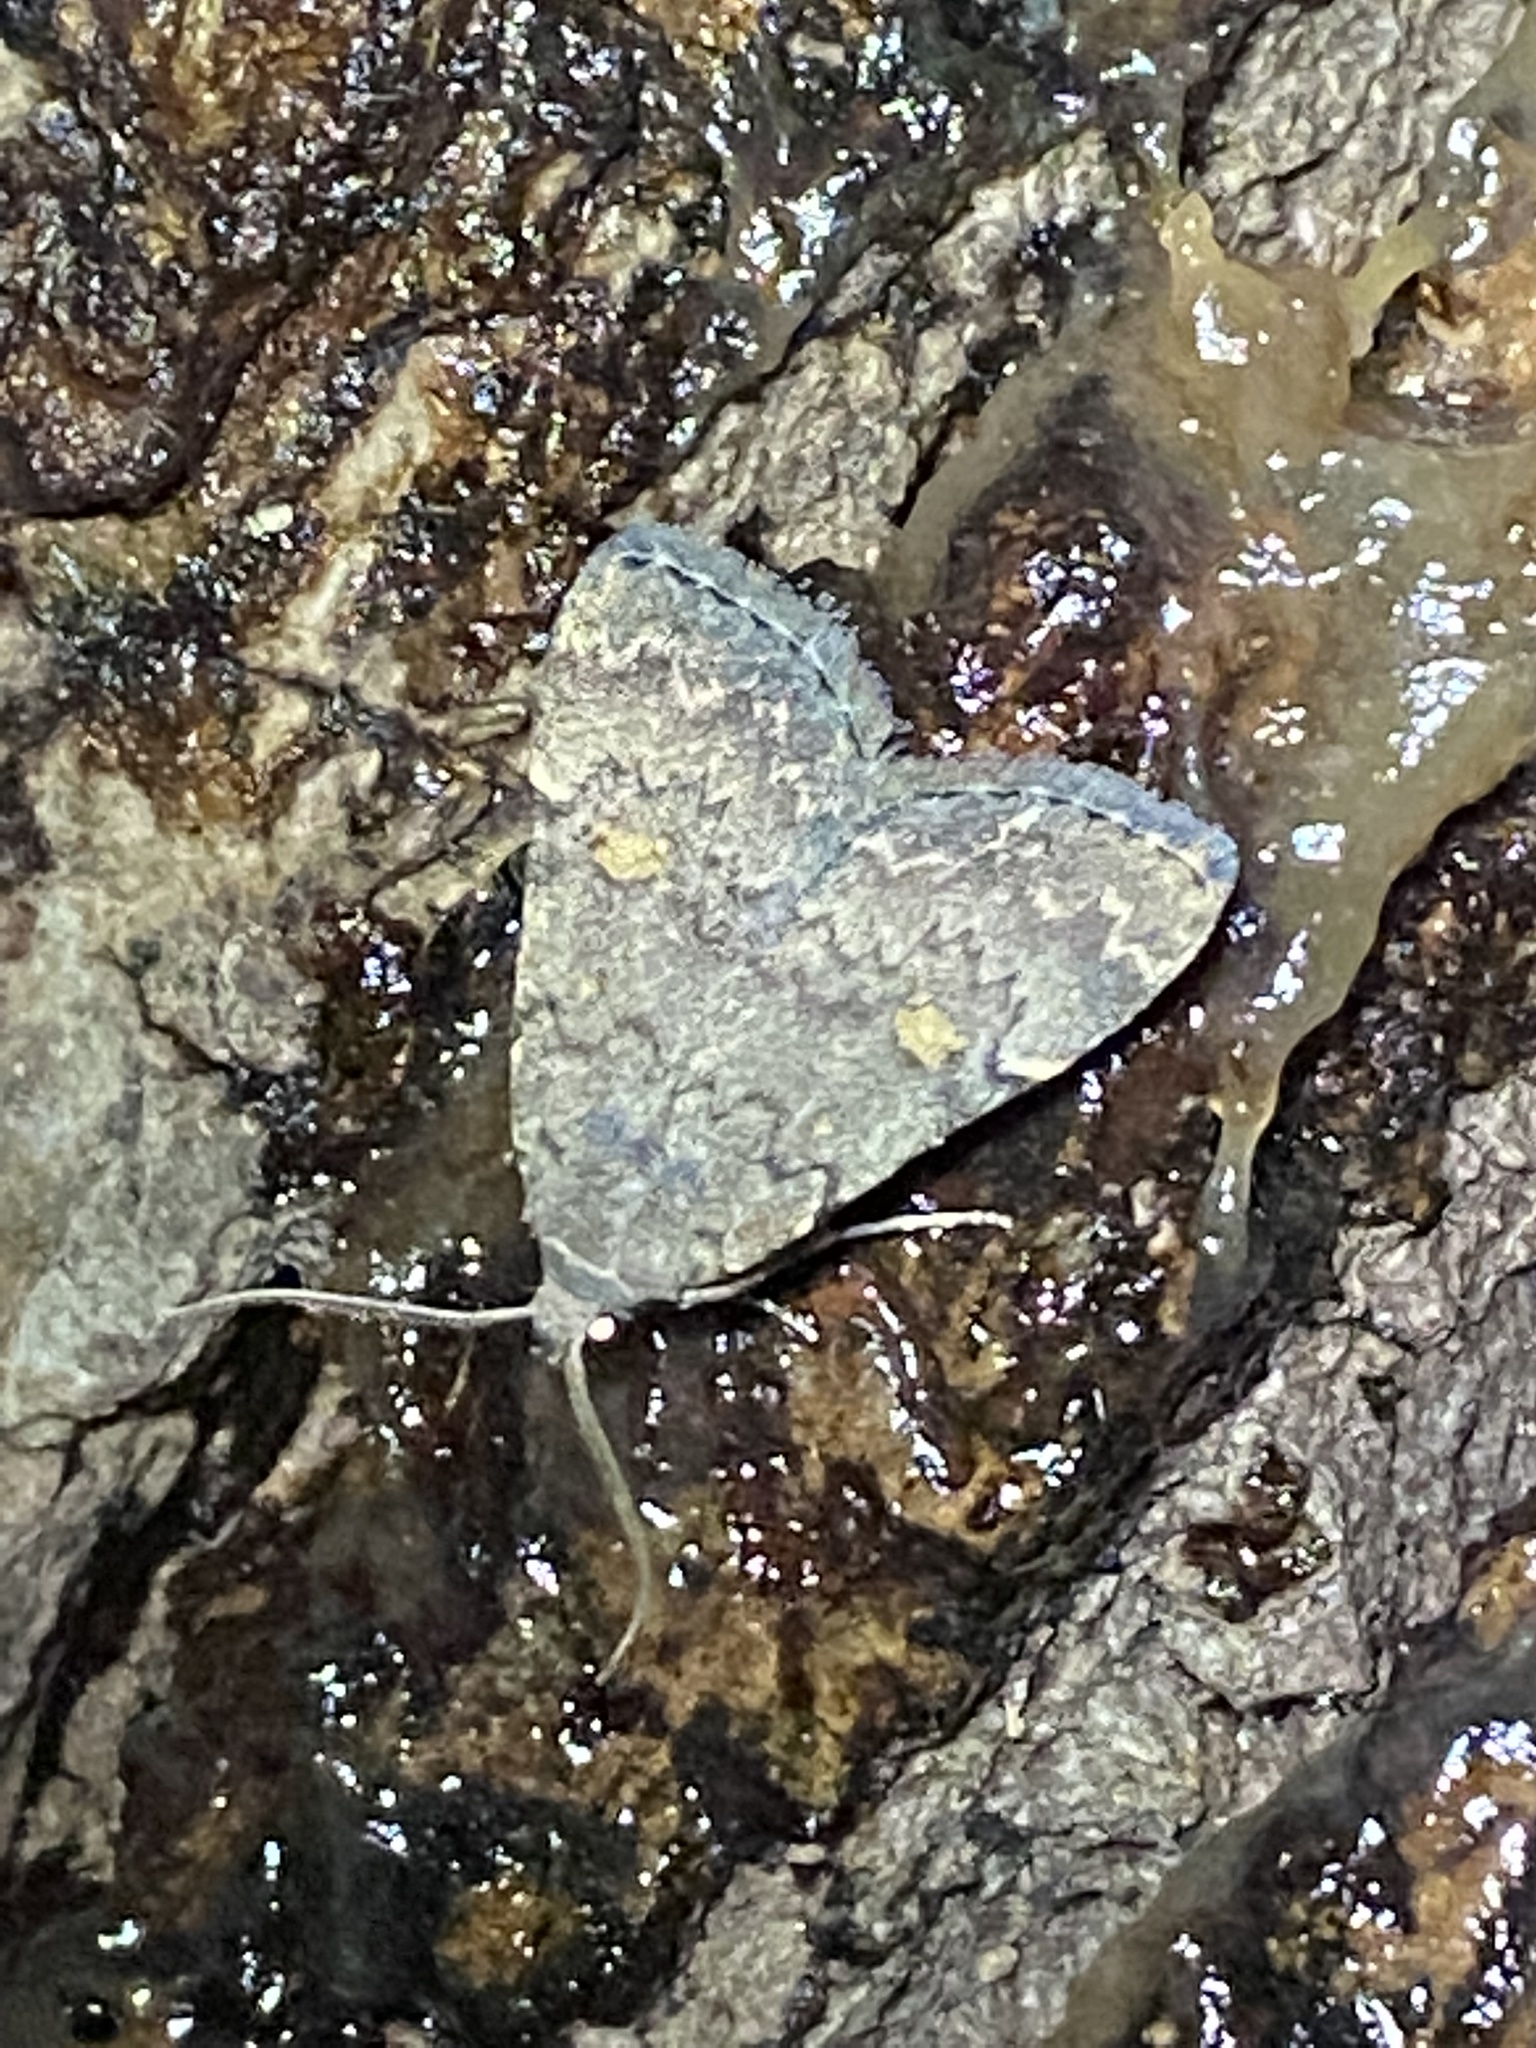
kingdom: Animalia
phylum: Arthropoda
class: Insecta
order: Lepidoptera
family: Erebidae
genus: Idia
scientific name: Idia aemula
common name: Common idia moth
